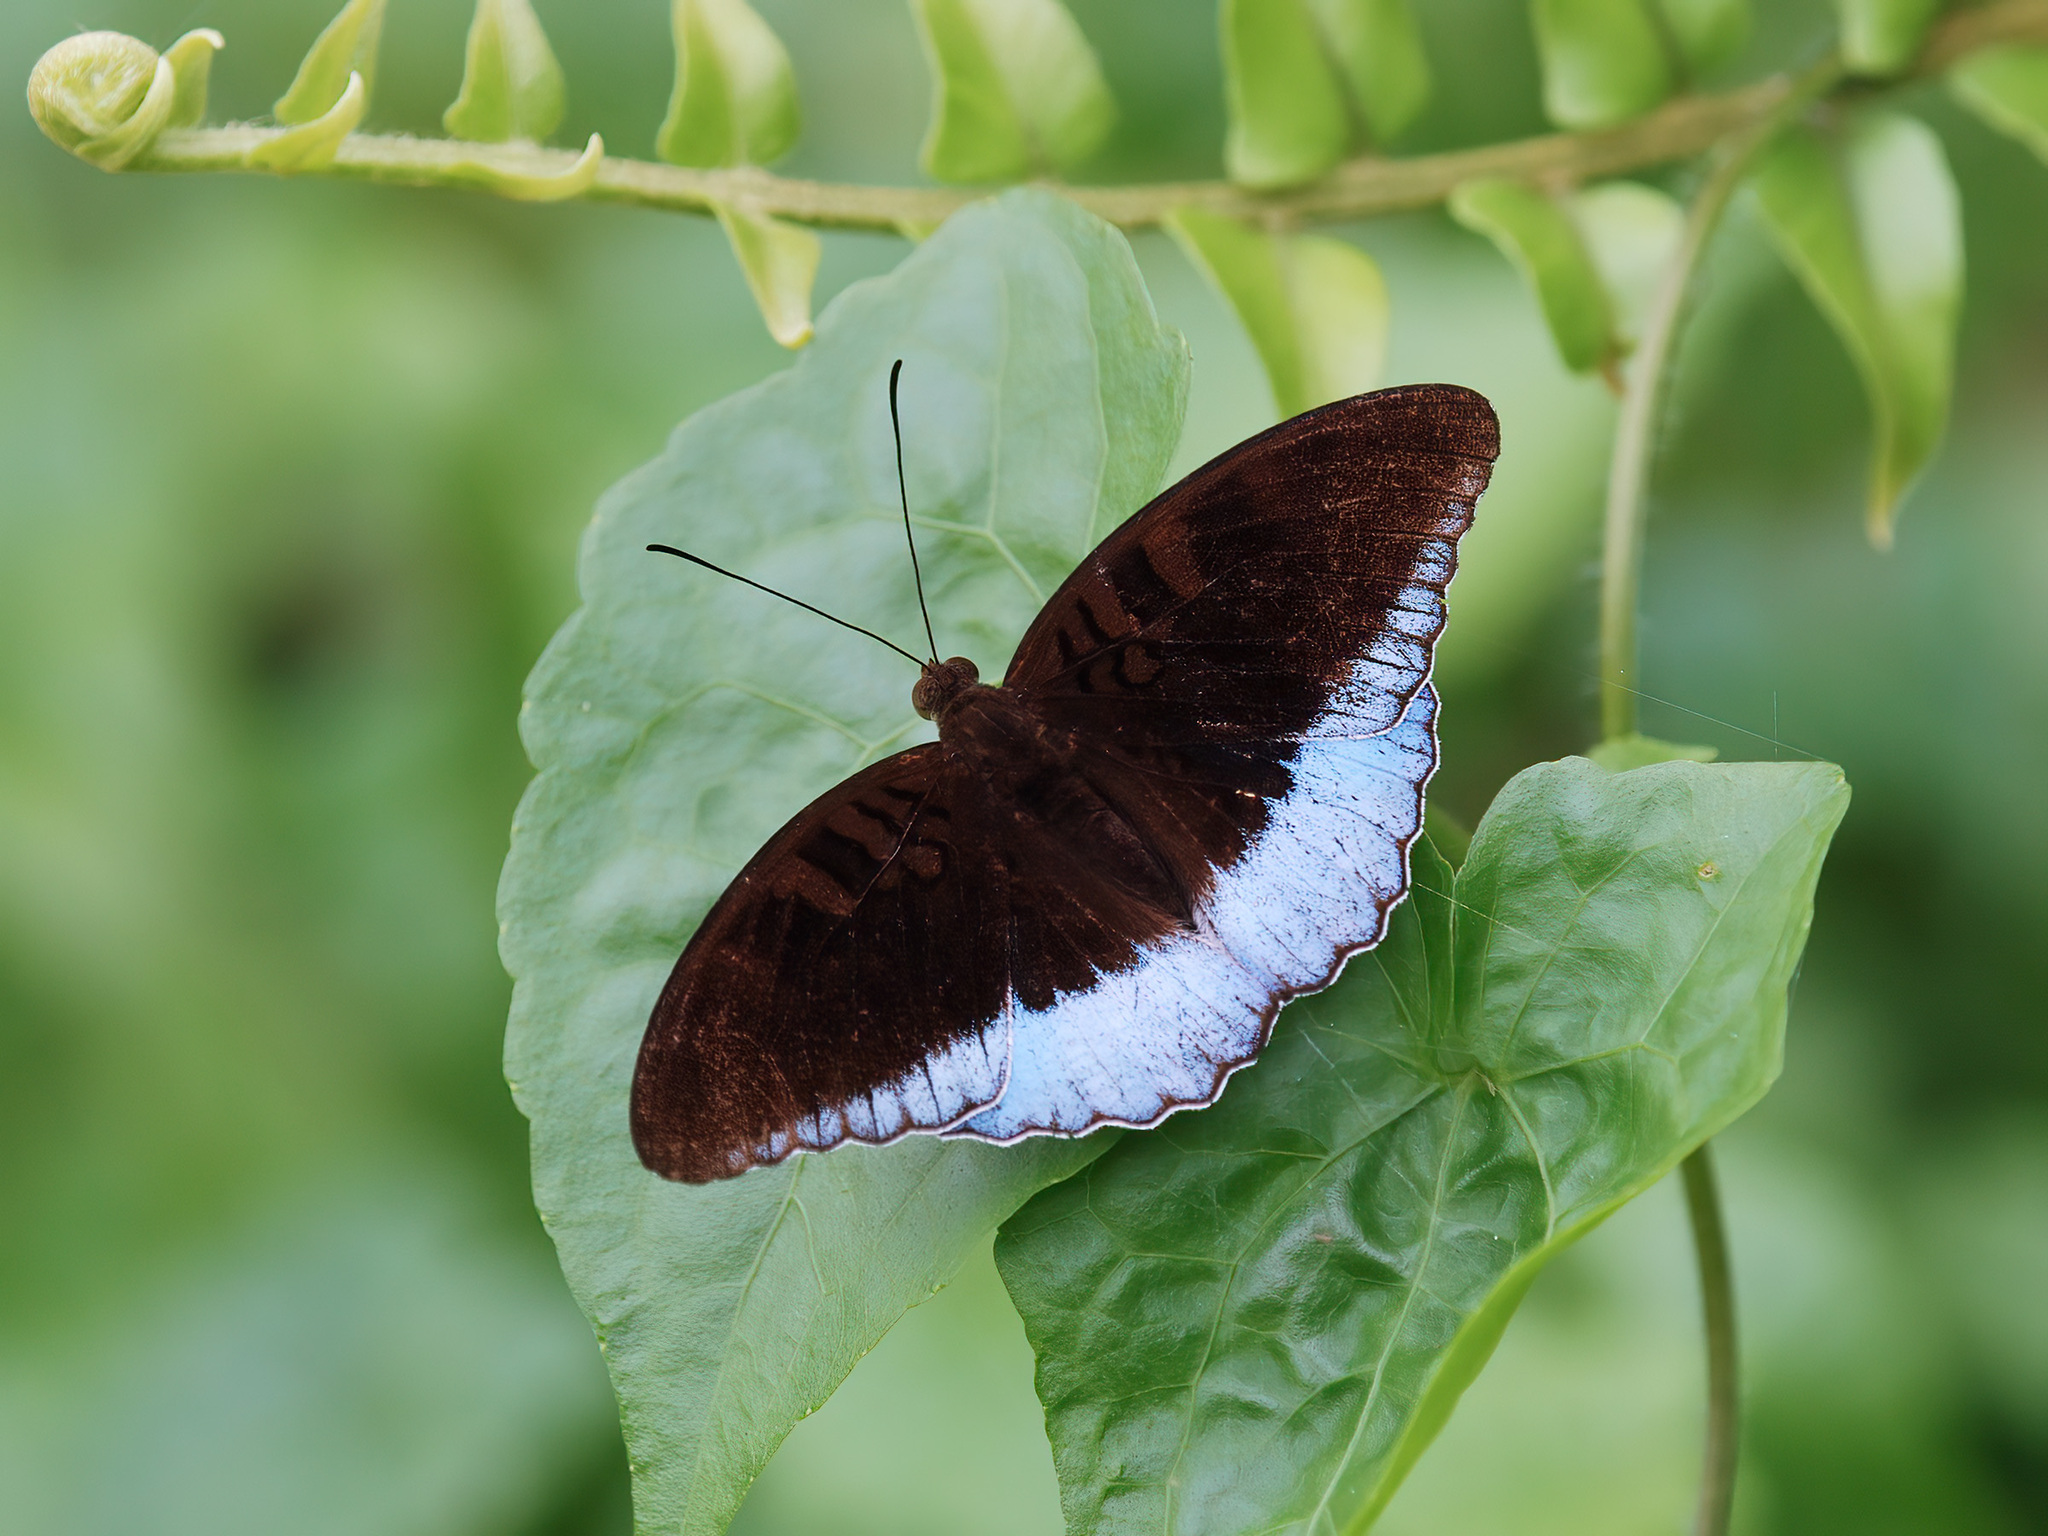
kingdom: Animalia
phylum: Arthropoda
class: Insecta
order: Lepidoptera
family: Nymphalidae
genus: Tanaecia
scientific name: Tanaecia iapis
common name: Horsfield's baron
